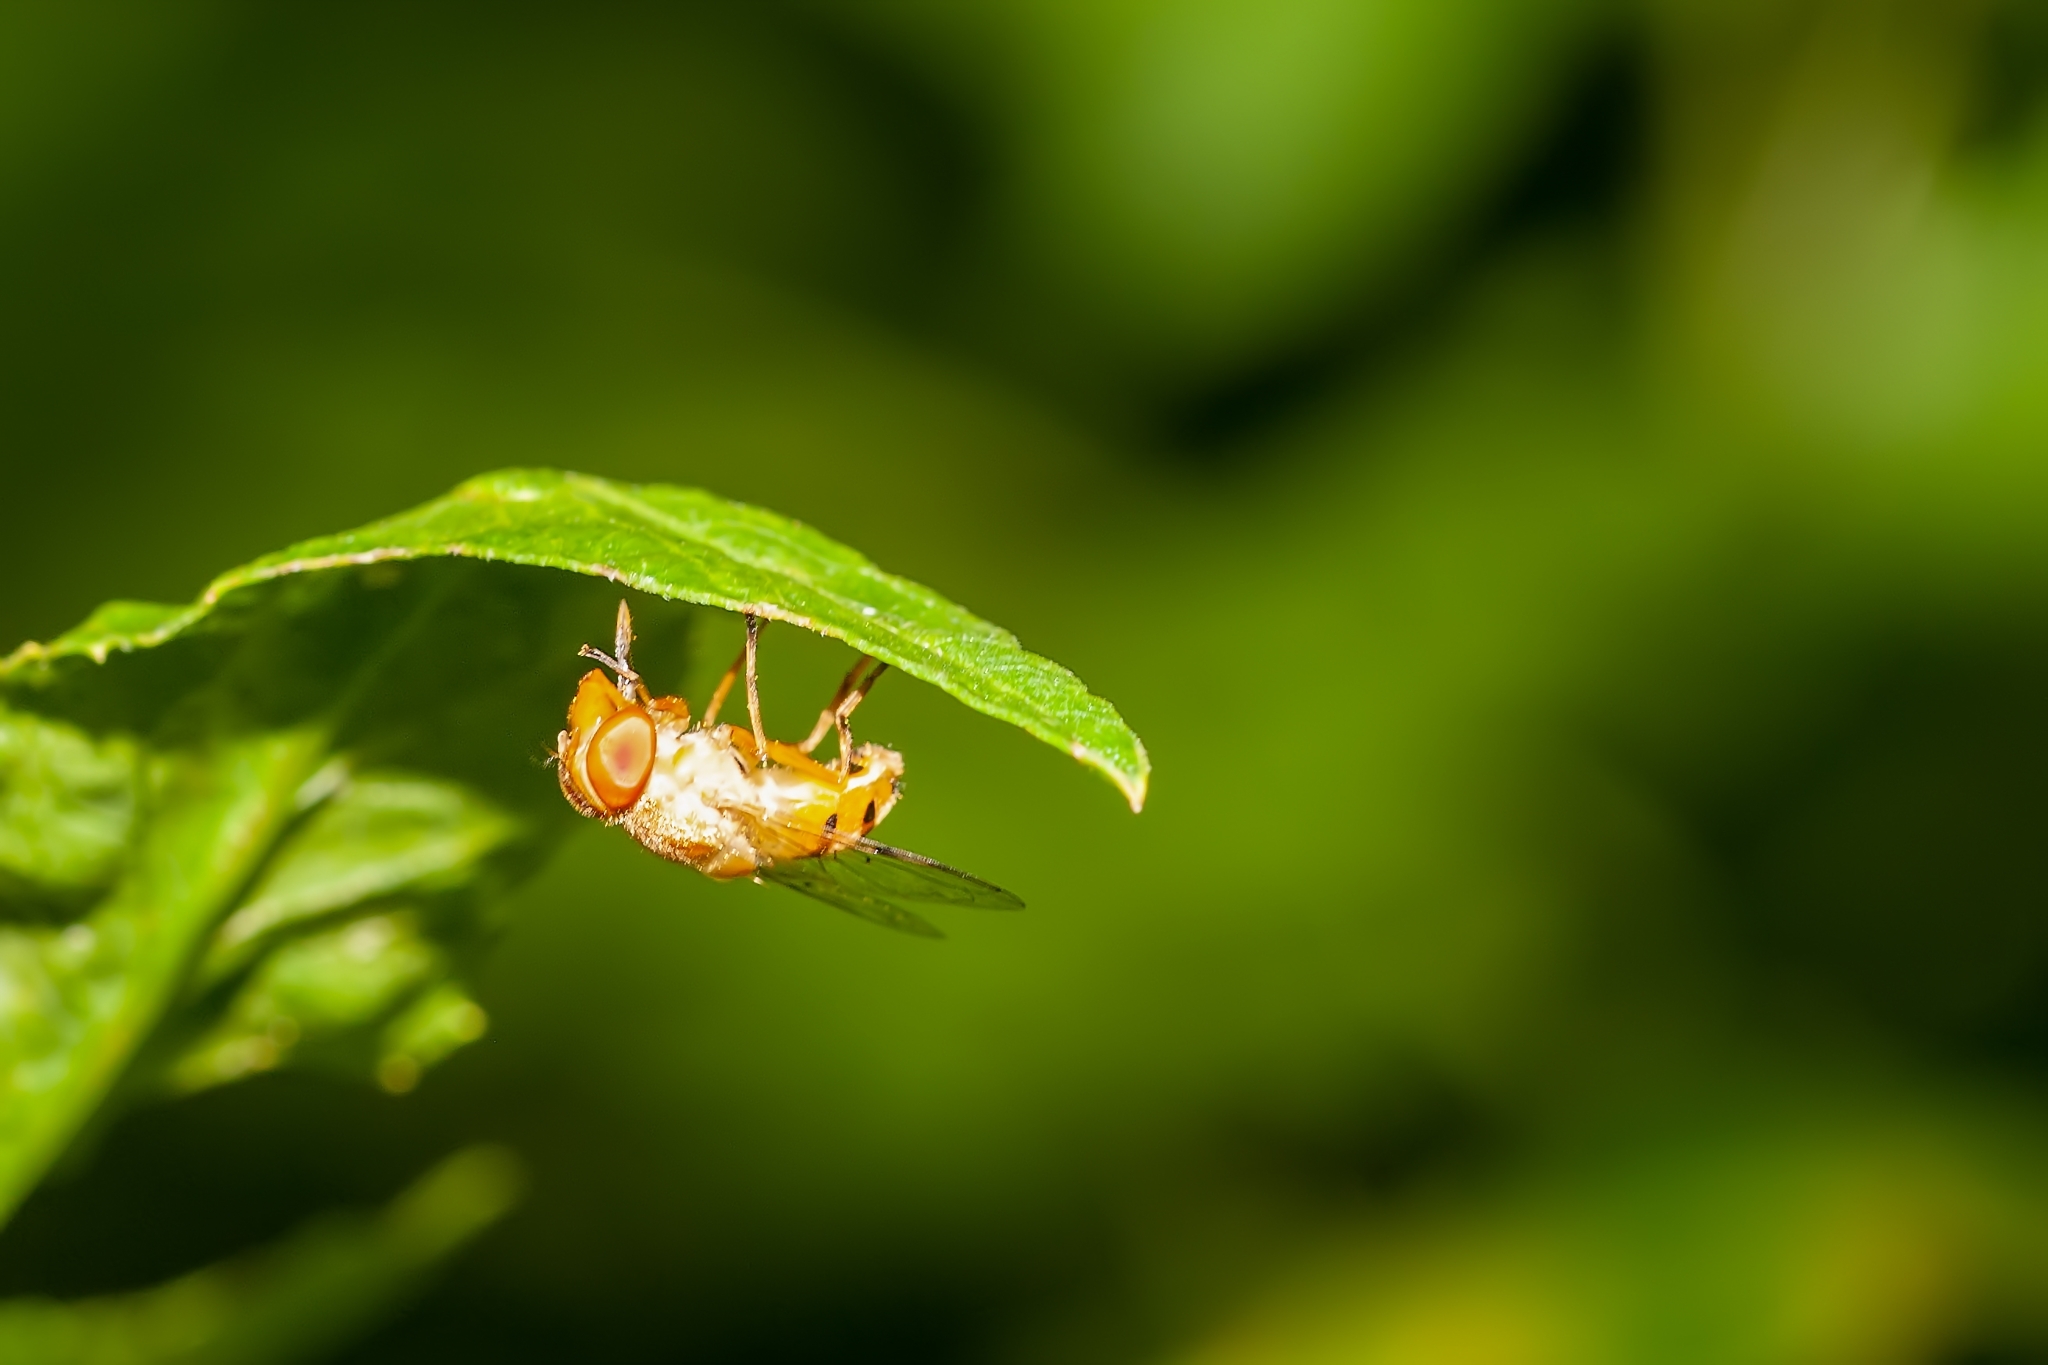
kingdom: Animalia
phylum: Arthropoda
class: Insecta
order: Diptera
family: Syrphidae
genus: Copestylum
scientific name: Copestylum sexmaculatum
